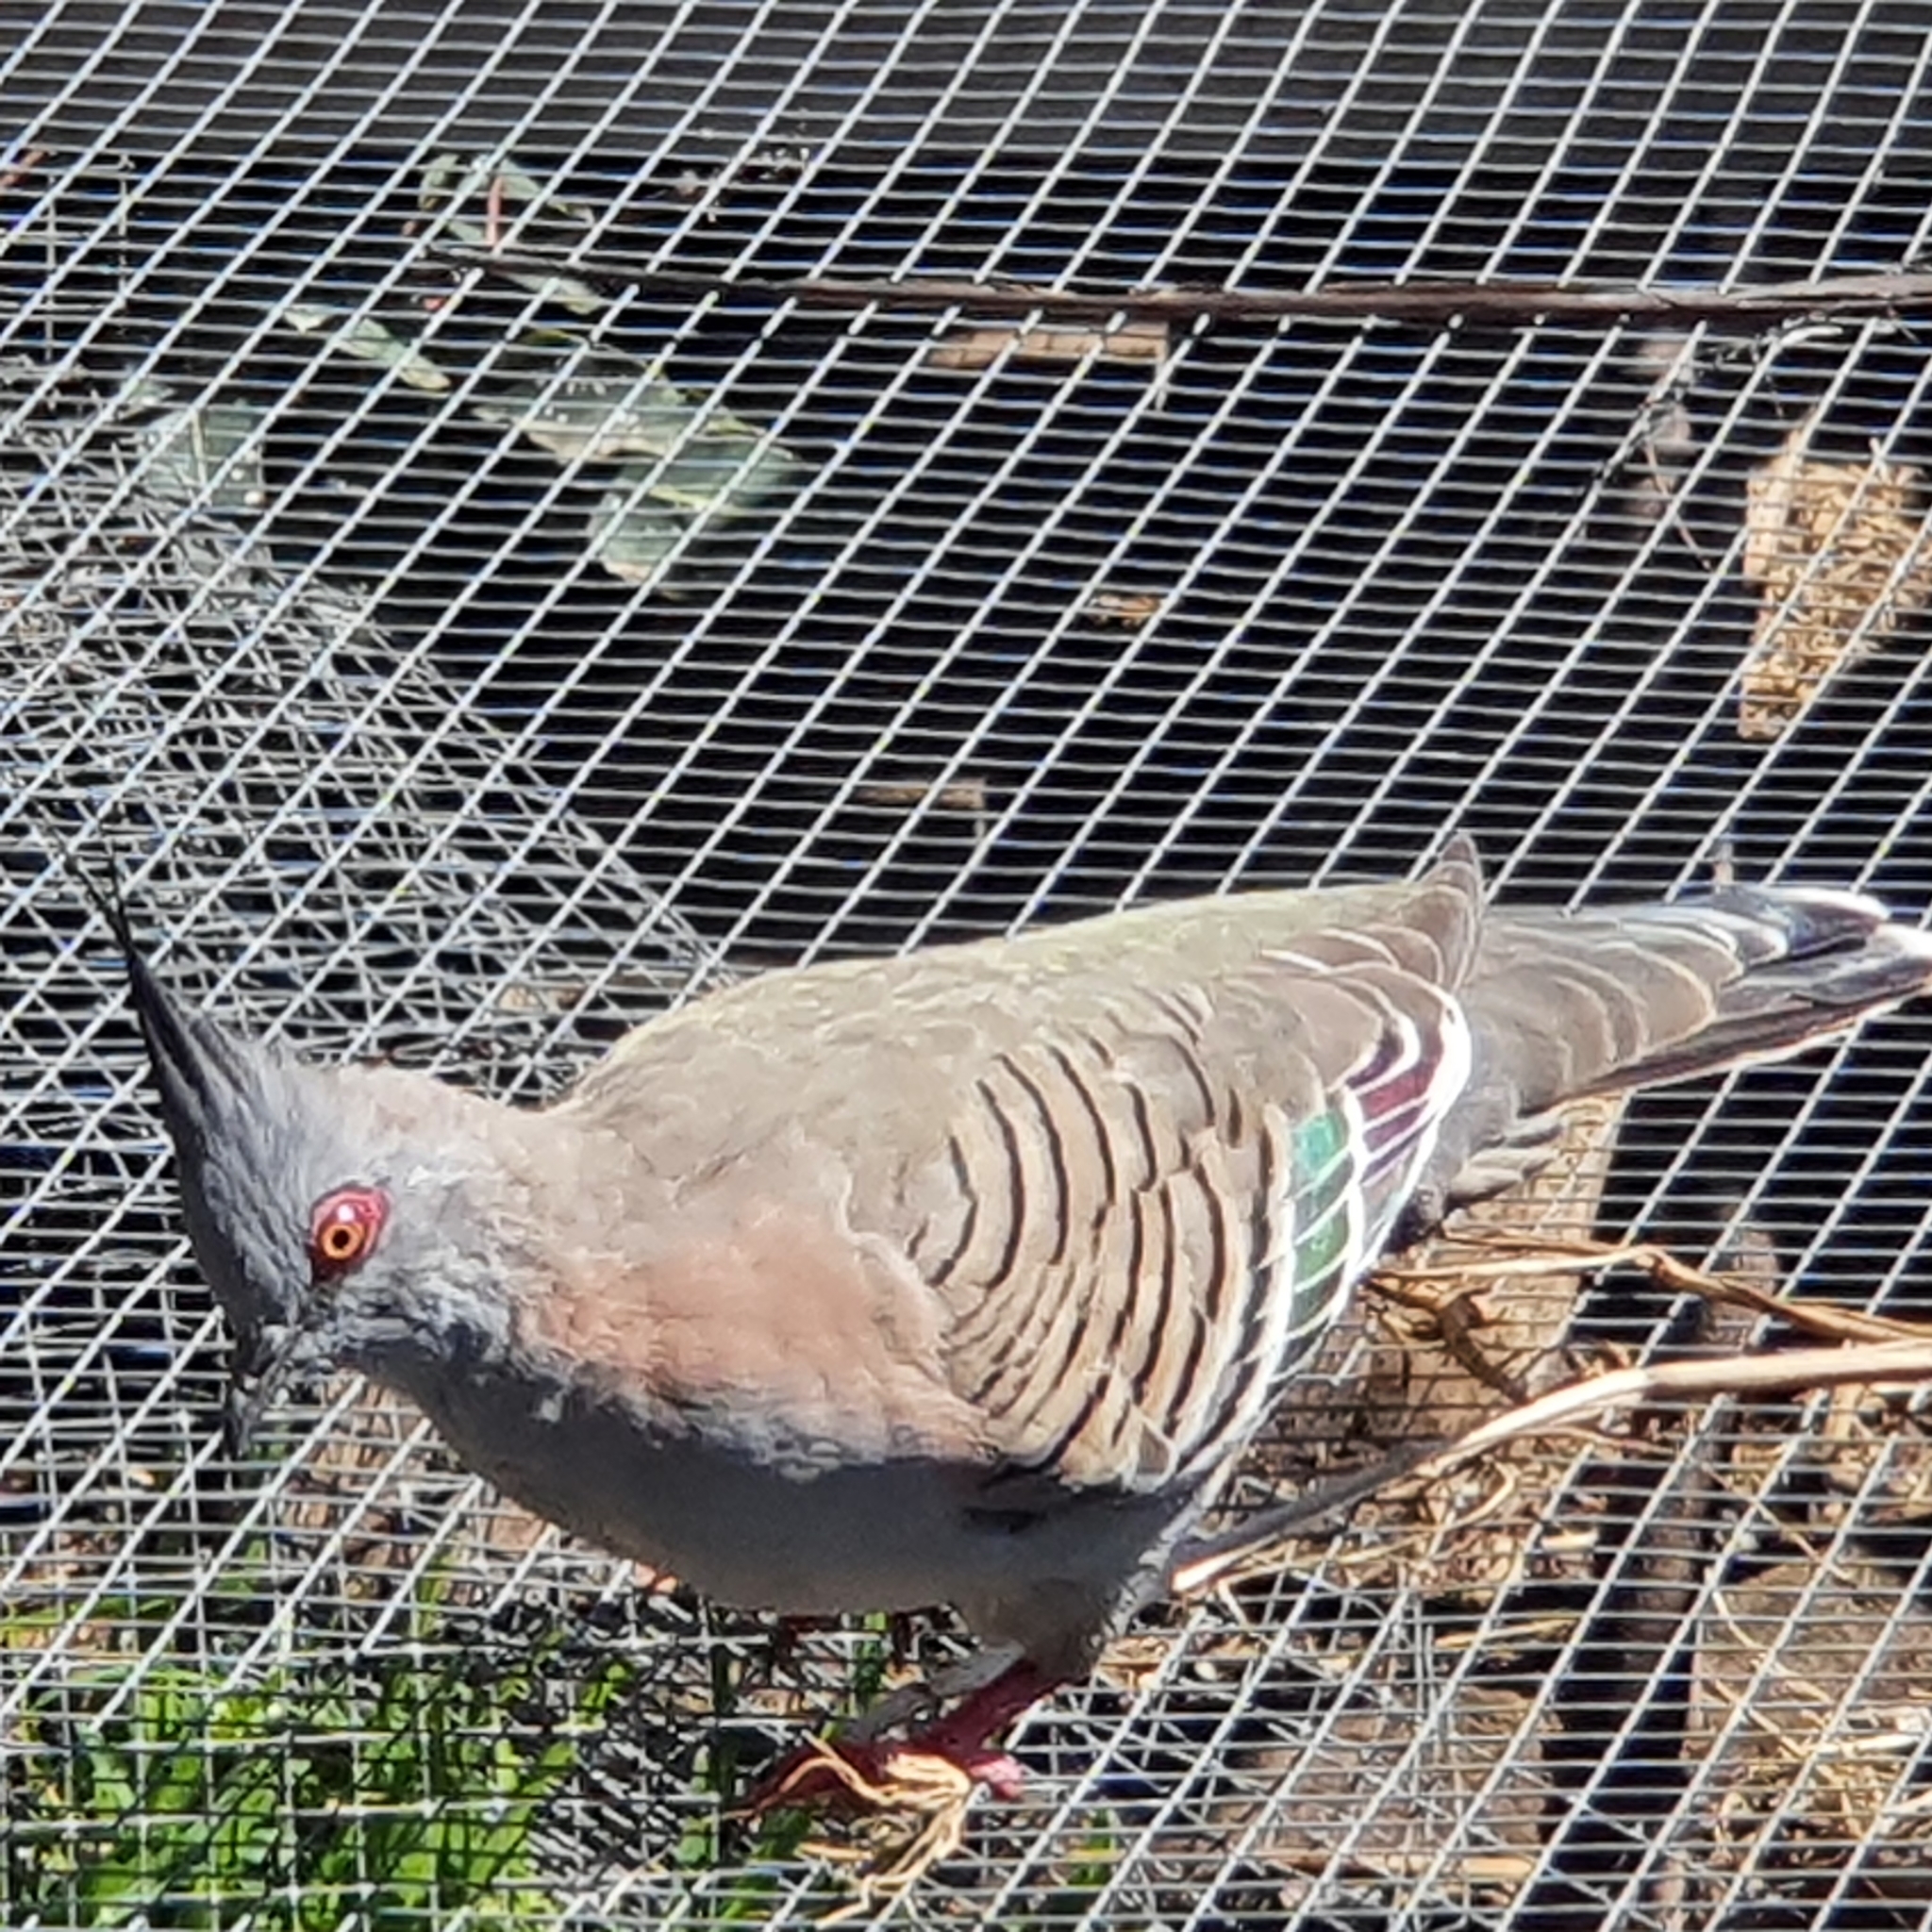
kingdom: Animalia
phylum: Chordata
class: Aves
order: Columbiformes
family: Columbidae
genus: Ocyphaps
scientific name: Ocyphaps lophotes
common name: Crested pigeon
